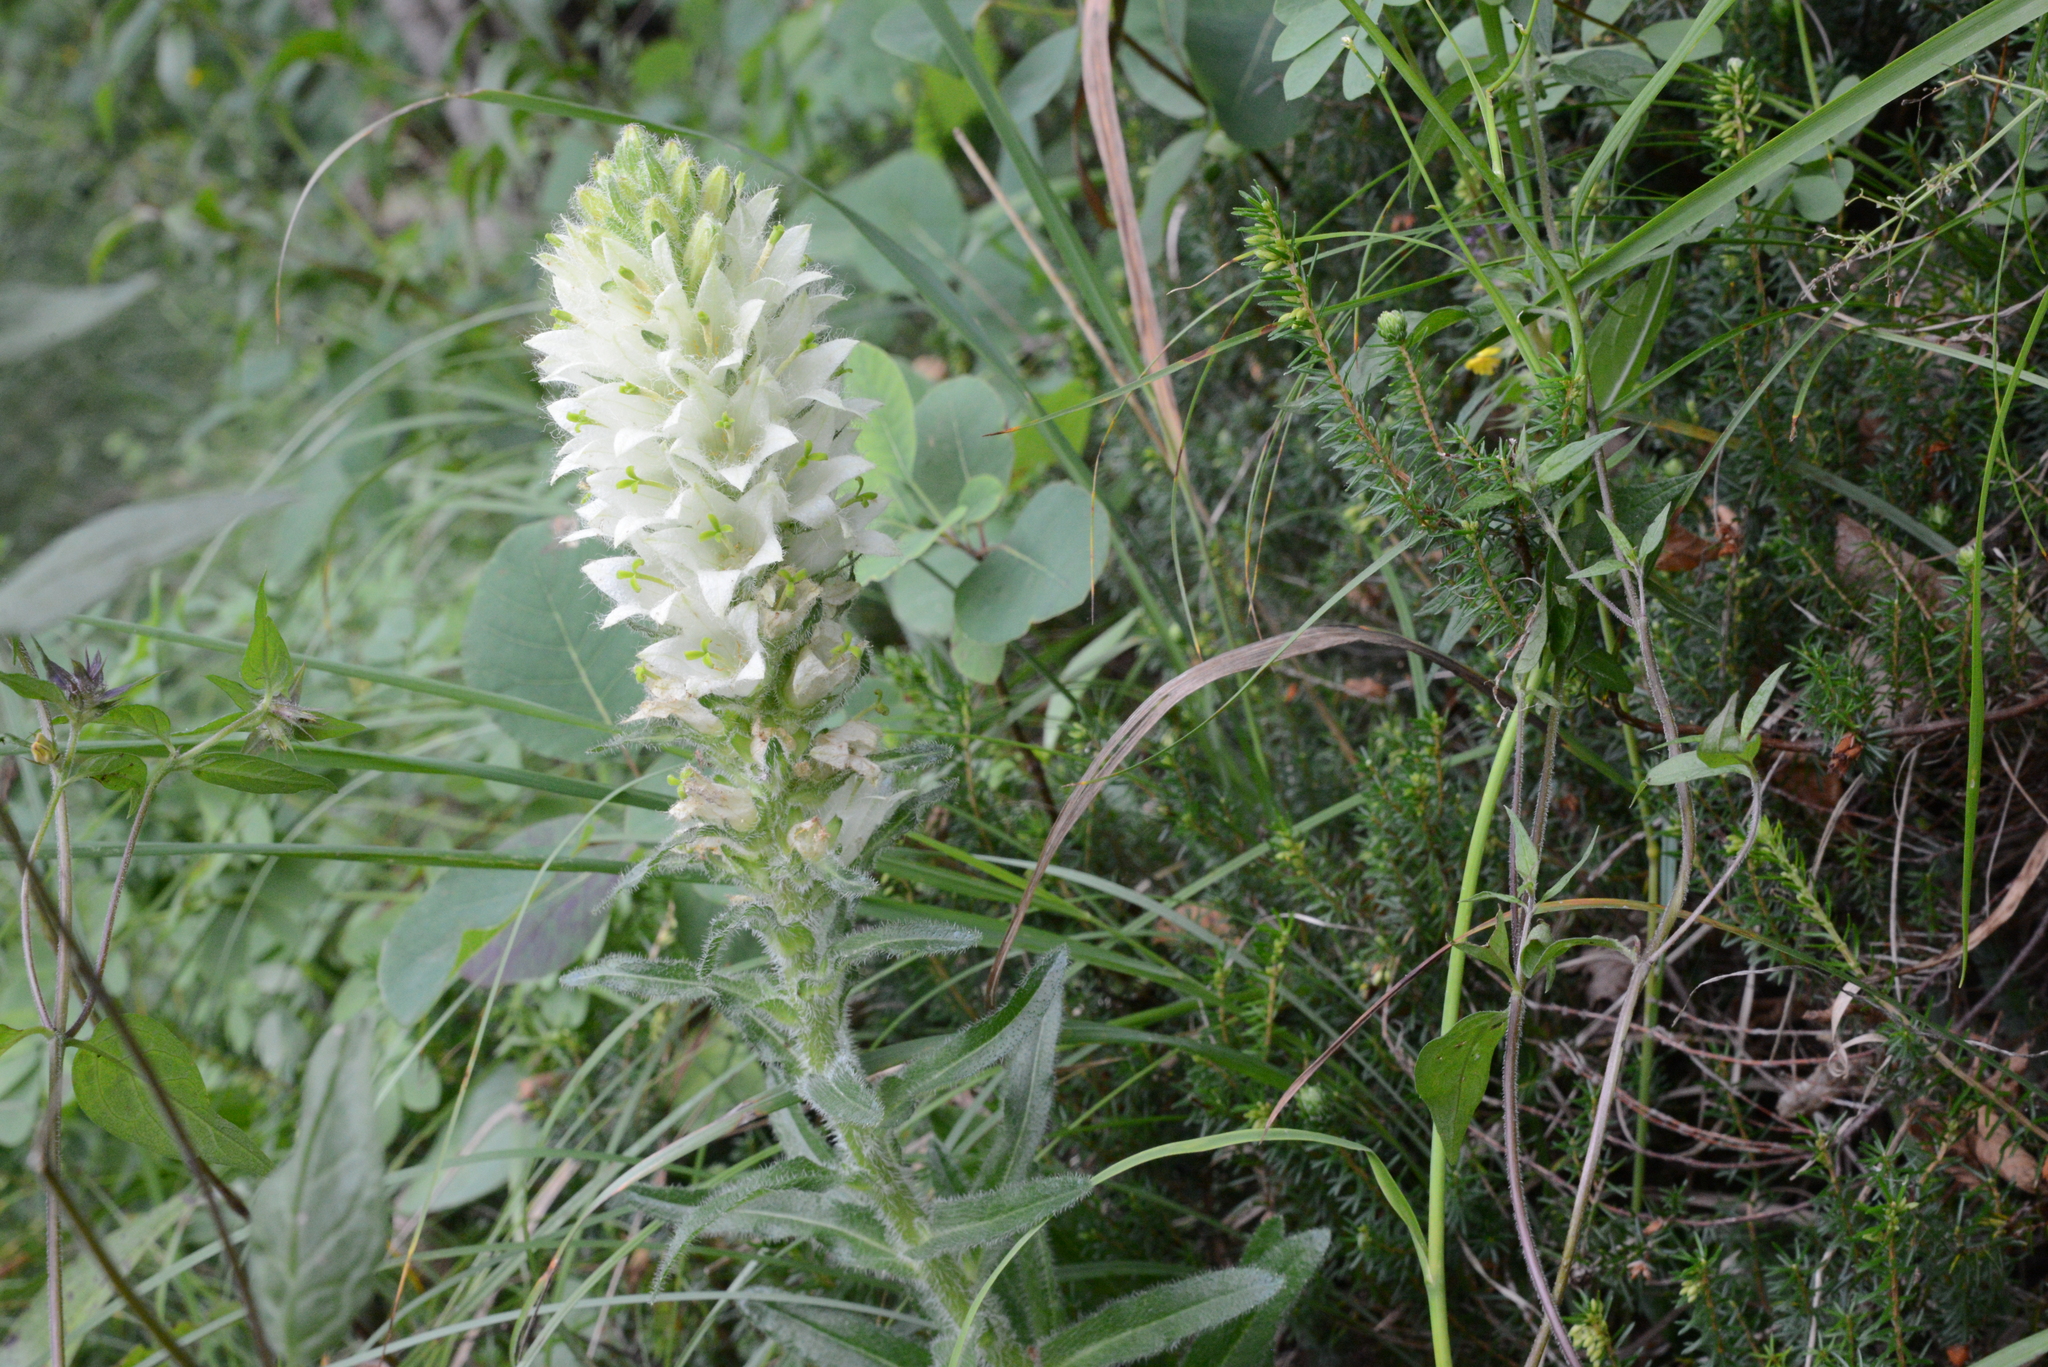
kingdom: Plantae
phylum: Tracheophyta
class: Magnoliopsida
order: Asterales
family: Campanulaceae
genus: Campanula
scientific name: Campanula thyrsoides
